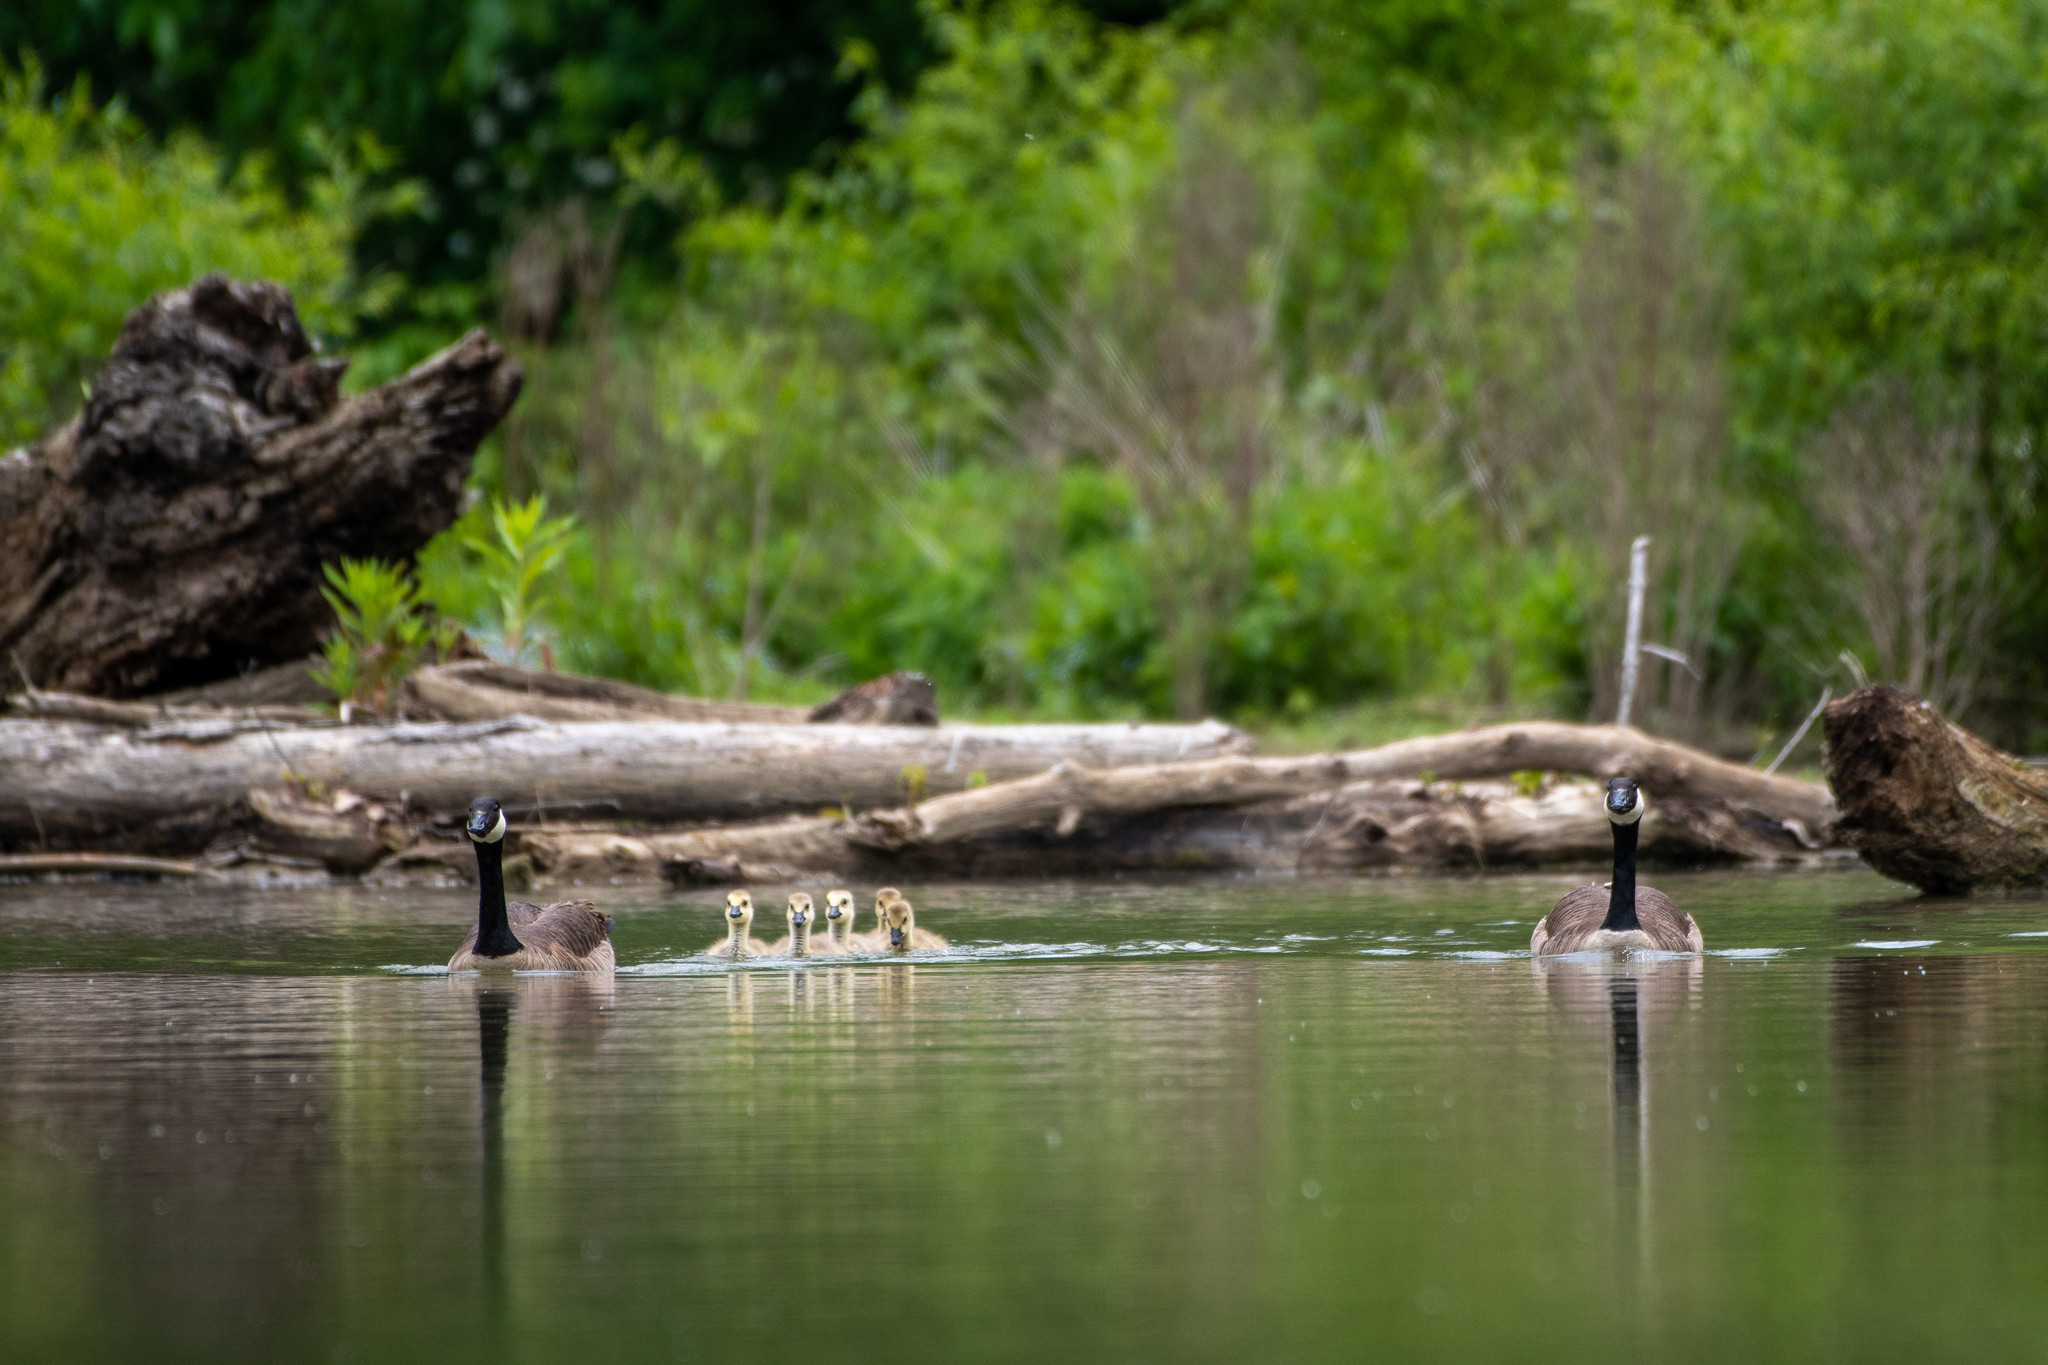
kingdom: Animalia
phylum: Chordata
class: Aves
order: Anseriformes
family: Anatidae
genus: Branta
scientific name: Branta canadensis
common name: Canada goose
